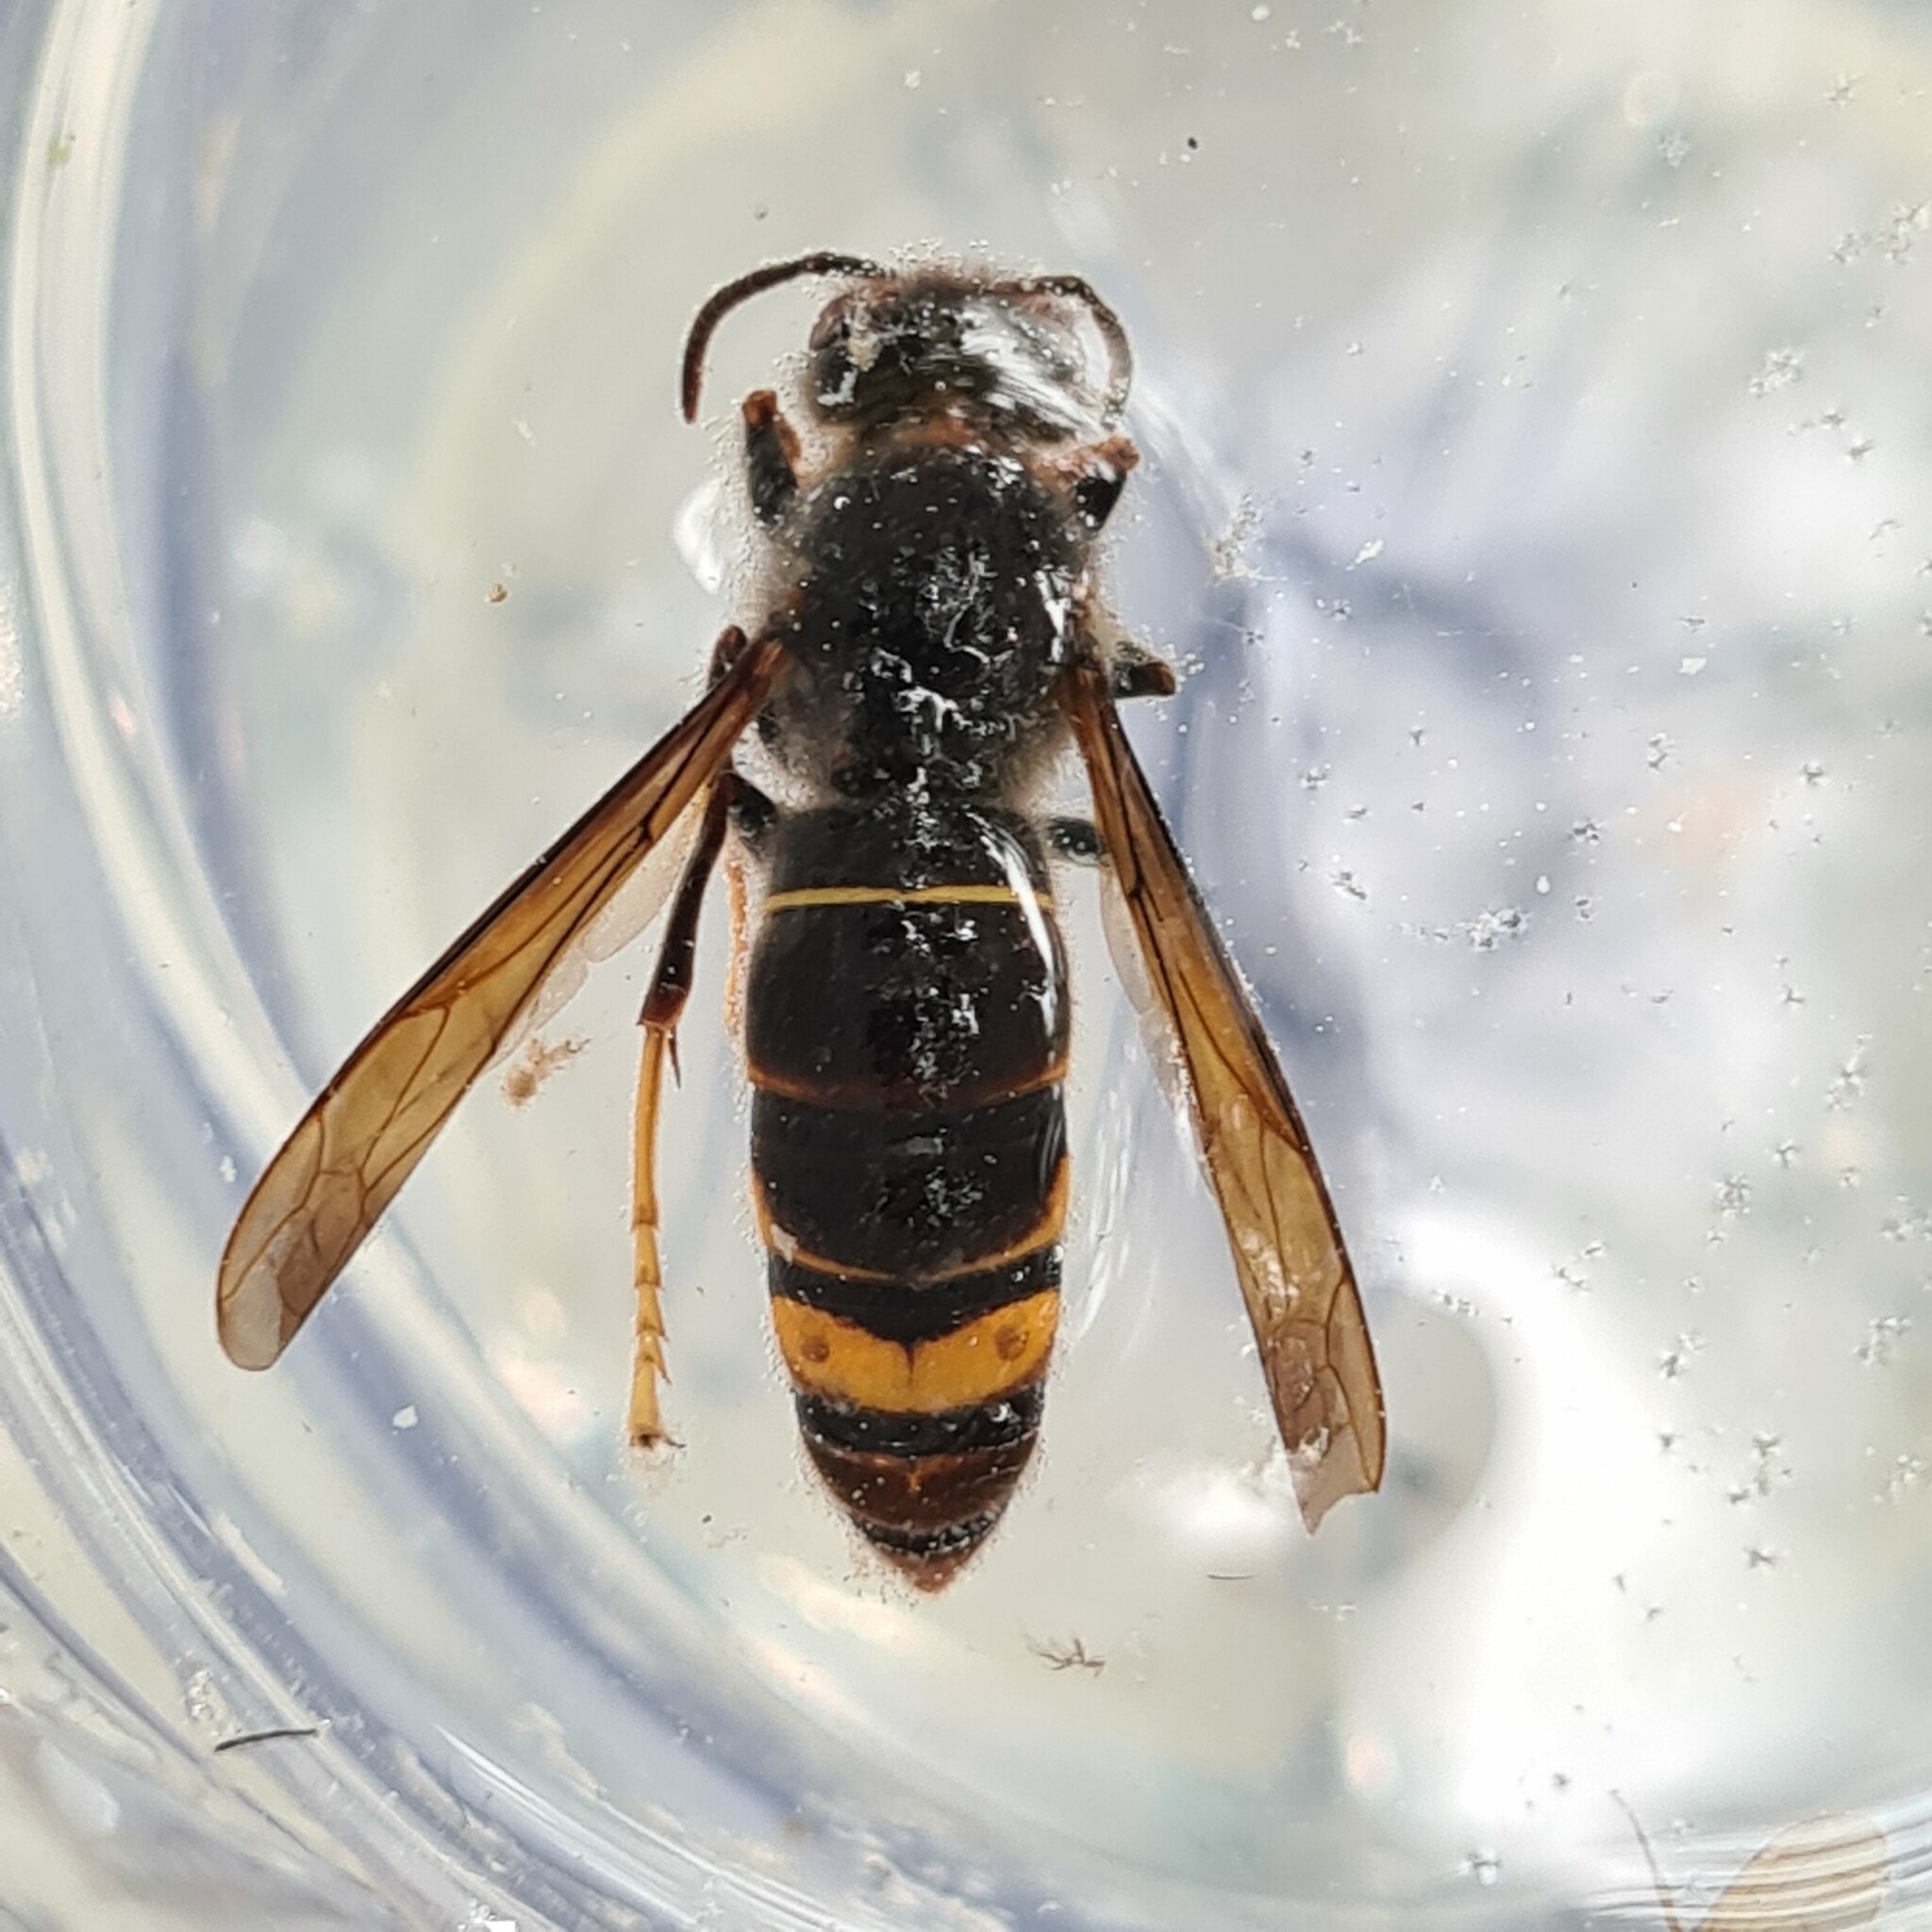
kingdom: Animalia
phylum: Arthropoda
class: Insecta
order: Hymenoptera
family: Vespidae
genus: Vespa
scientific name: Vespa velutina
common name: Asian hornet
